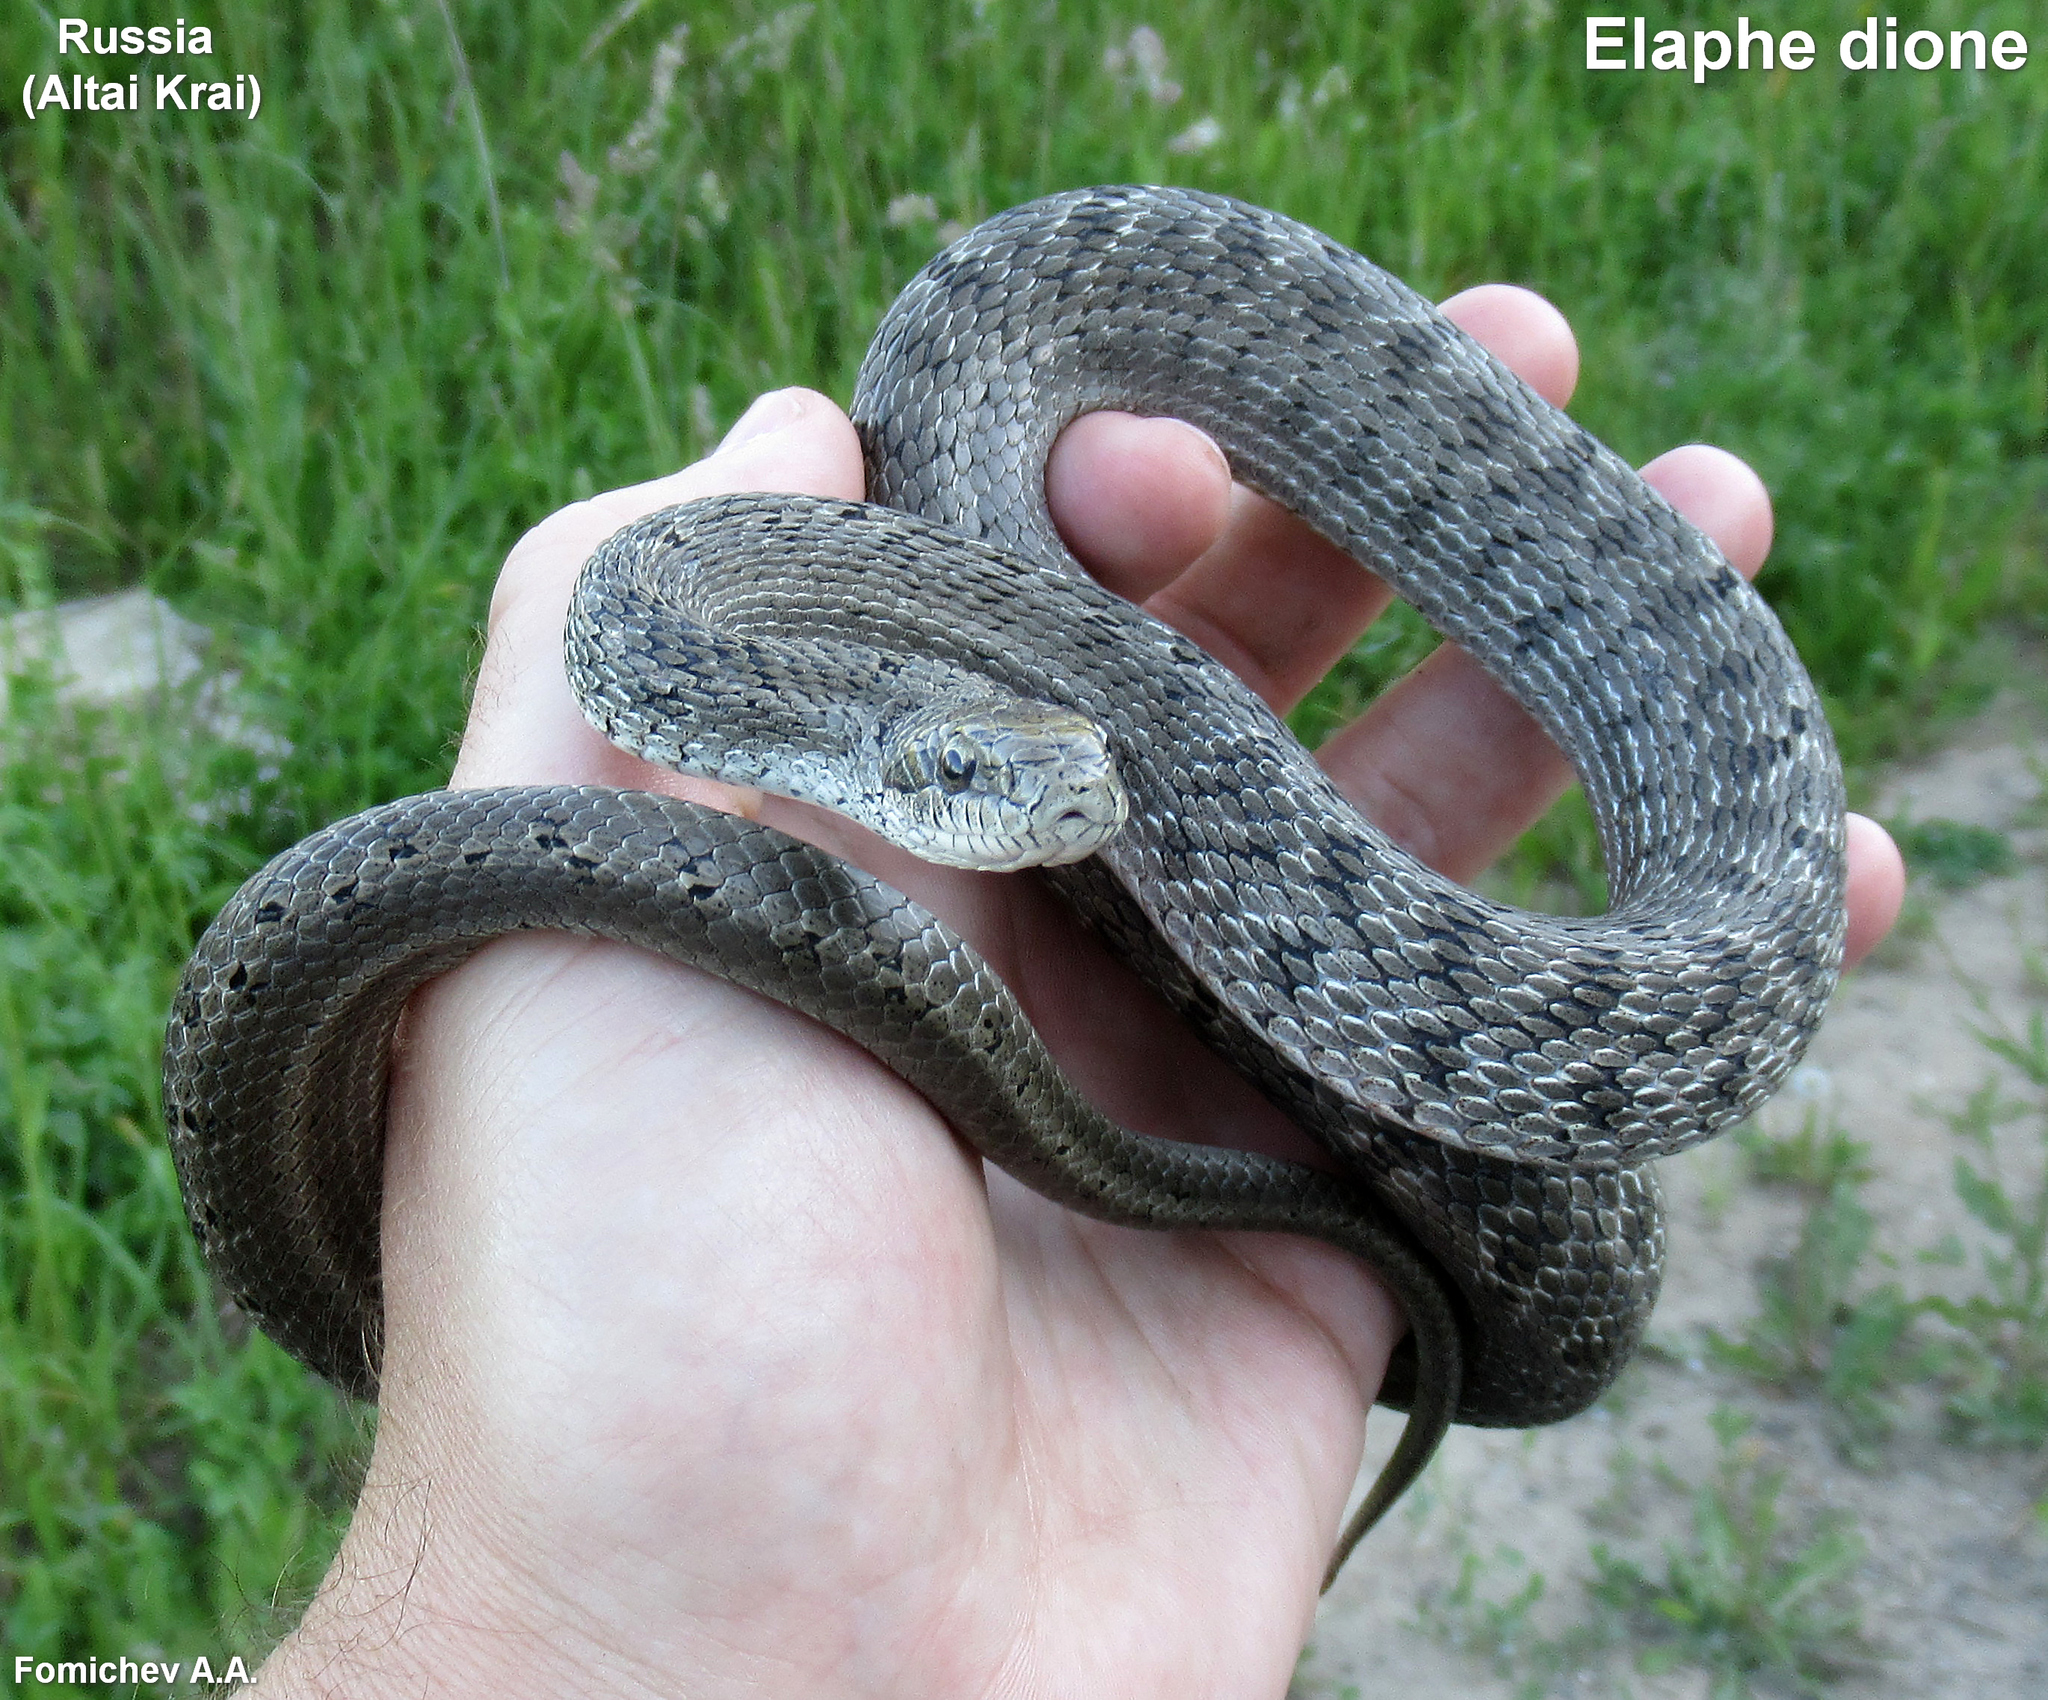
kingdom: Animalia
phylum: Chordata
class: Squamata
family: Colubridae
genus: Elaphe
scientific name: Elaphe dione
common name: Dione ratsnake
